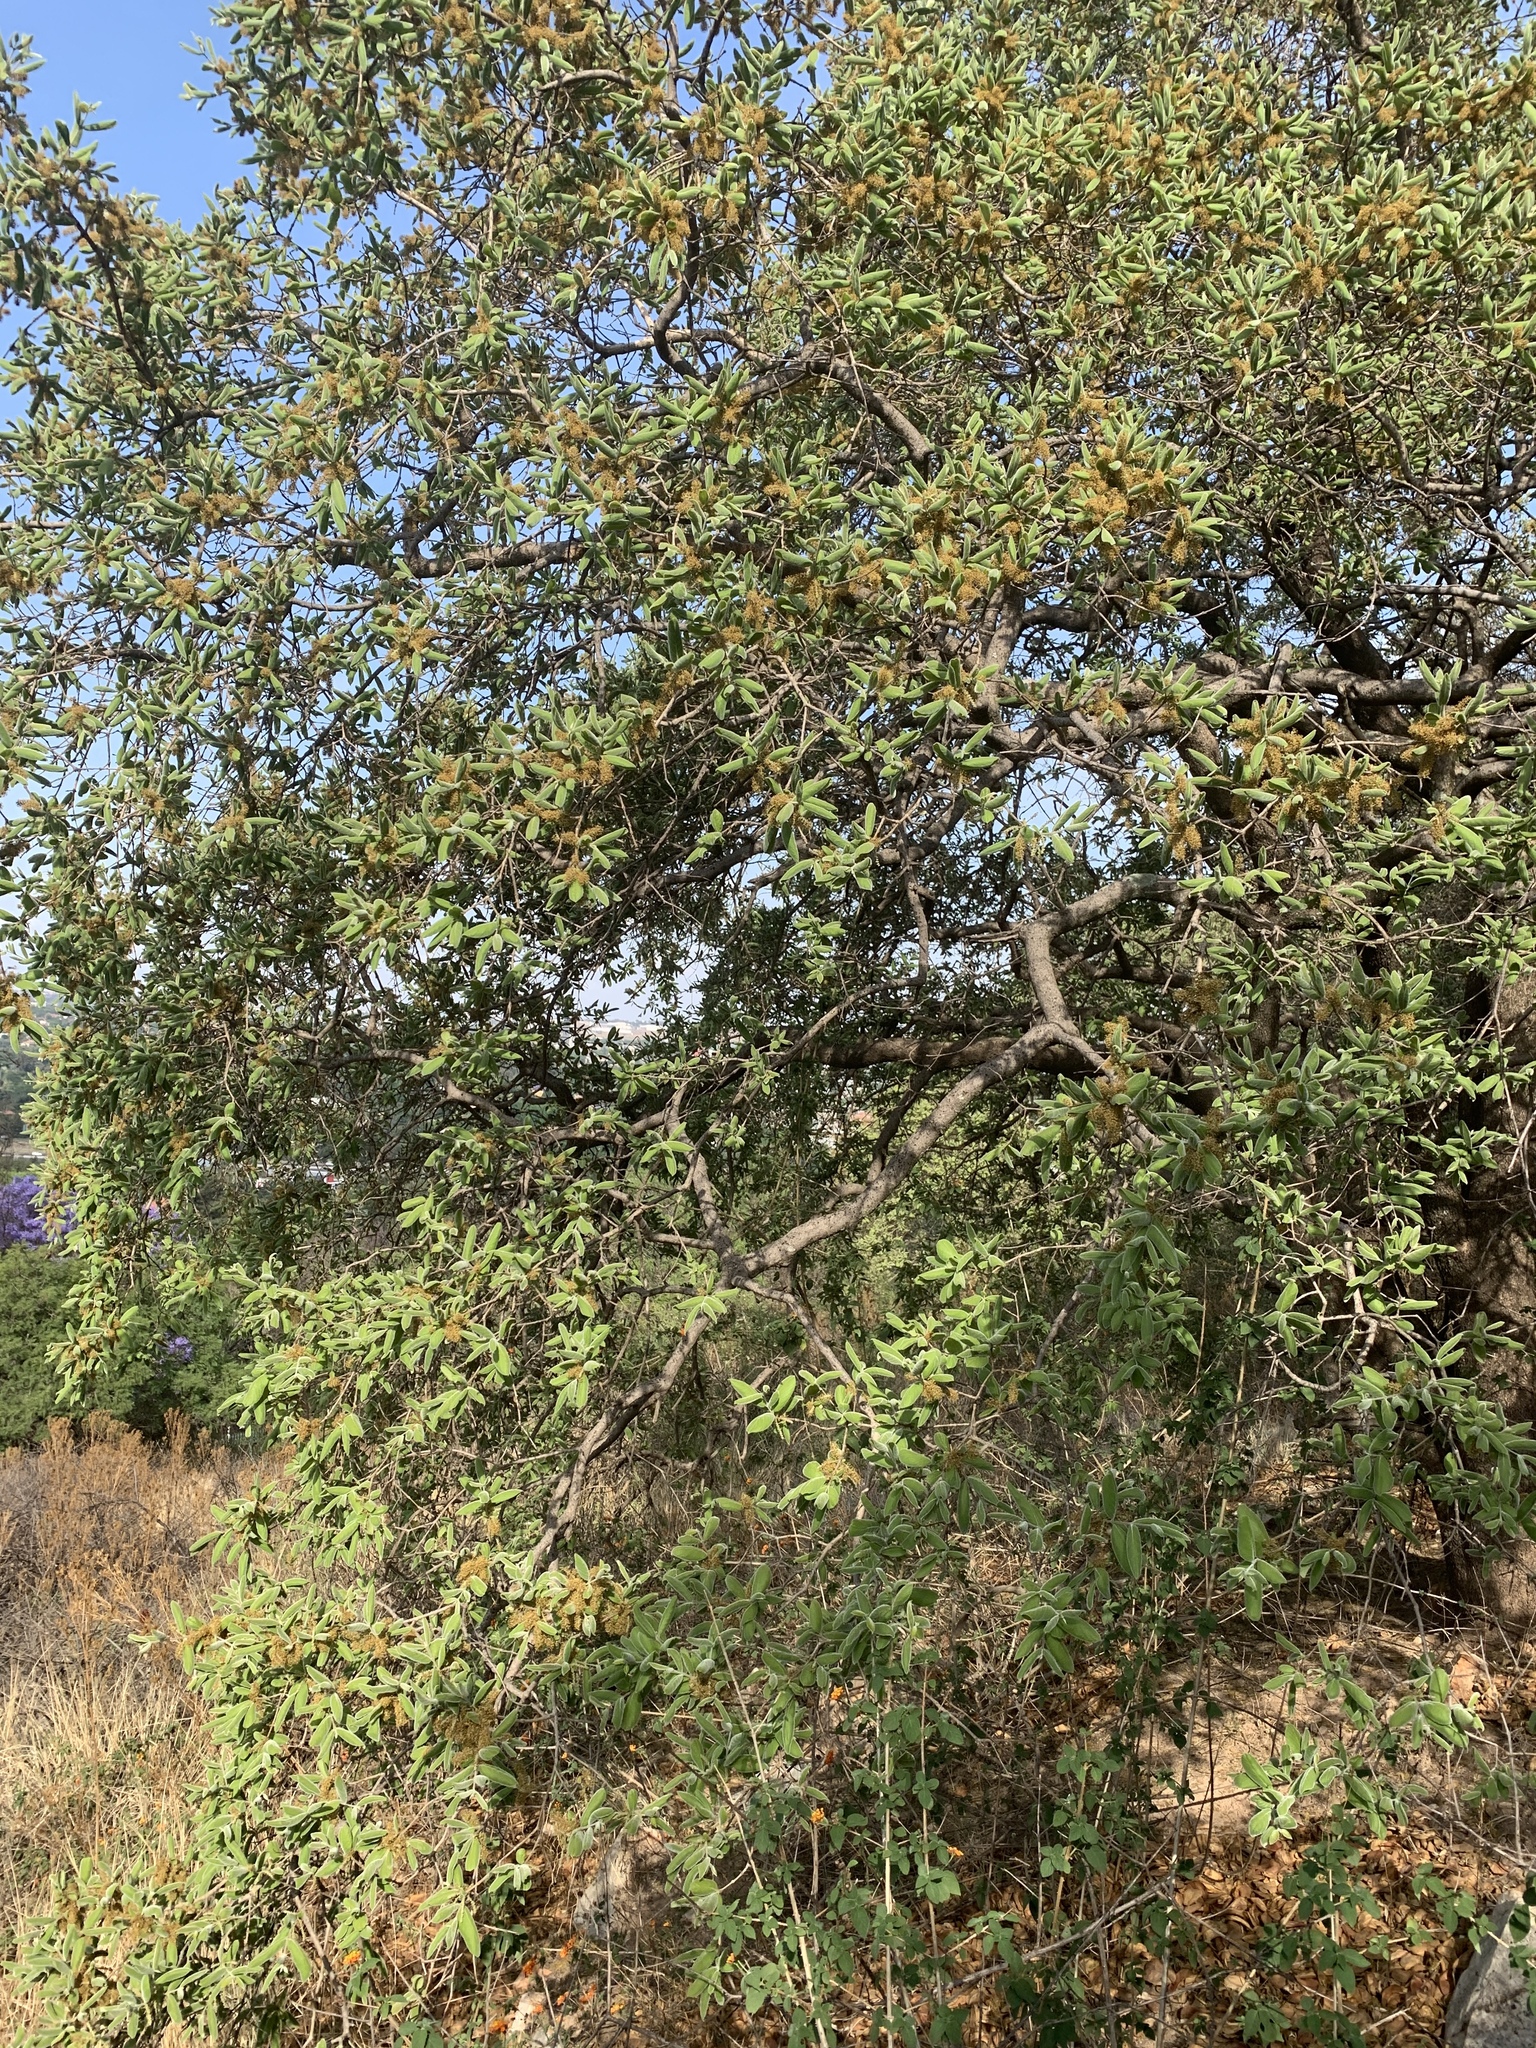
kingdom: Plantae
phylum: Tracheophyta
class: Magnoliopsida
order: Myrtales
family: Combretaceae
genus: Combretum
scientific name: Combretum molle
